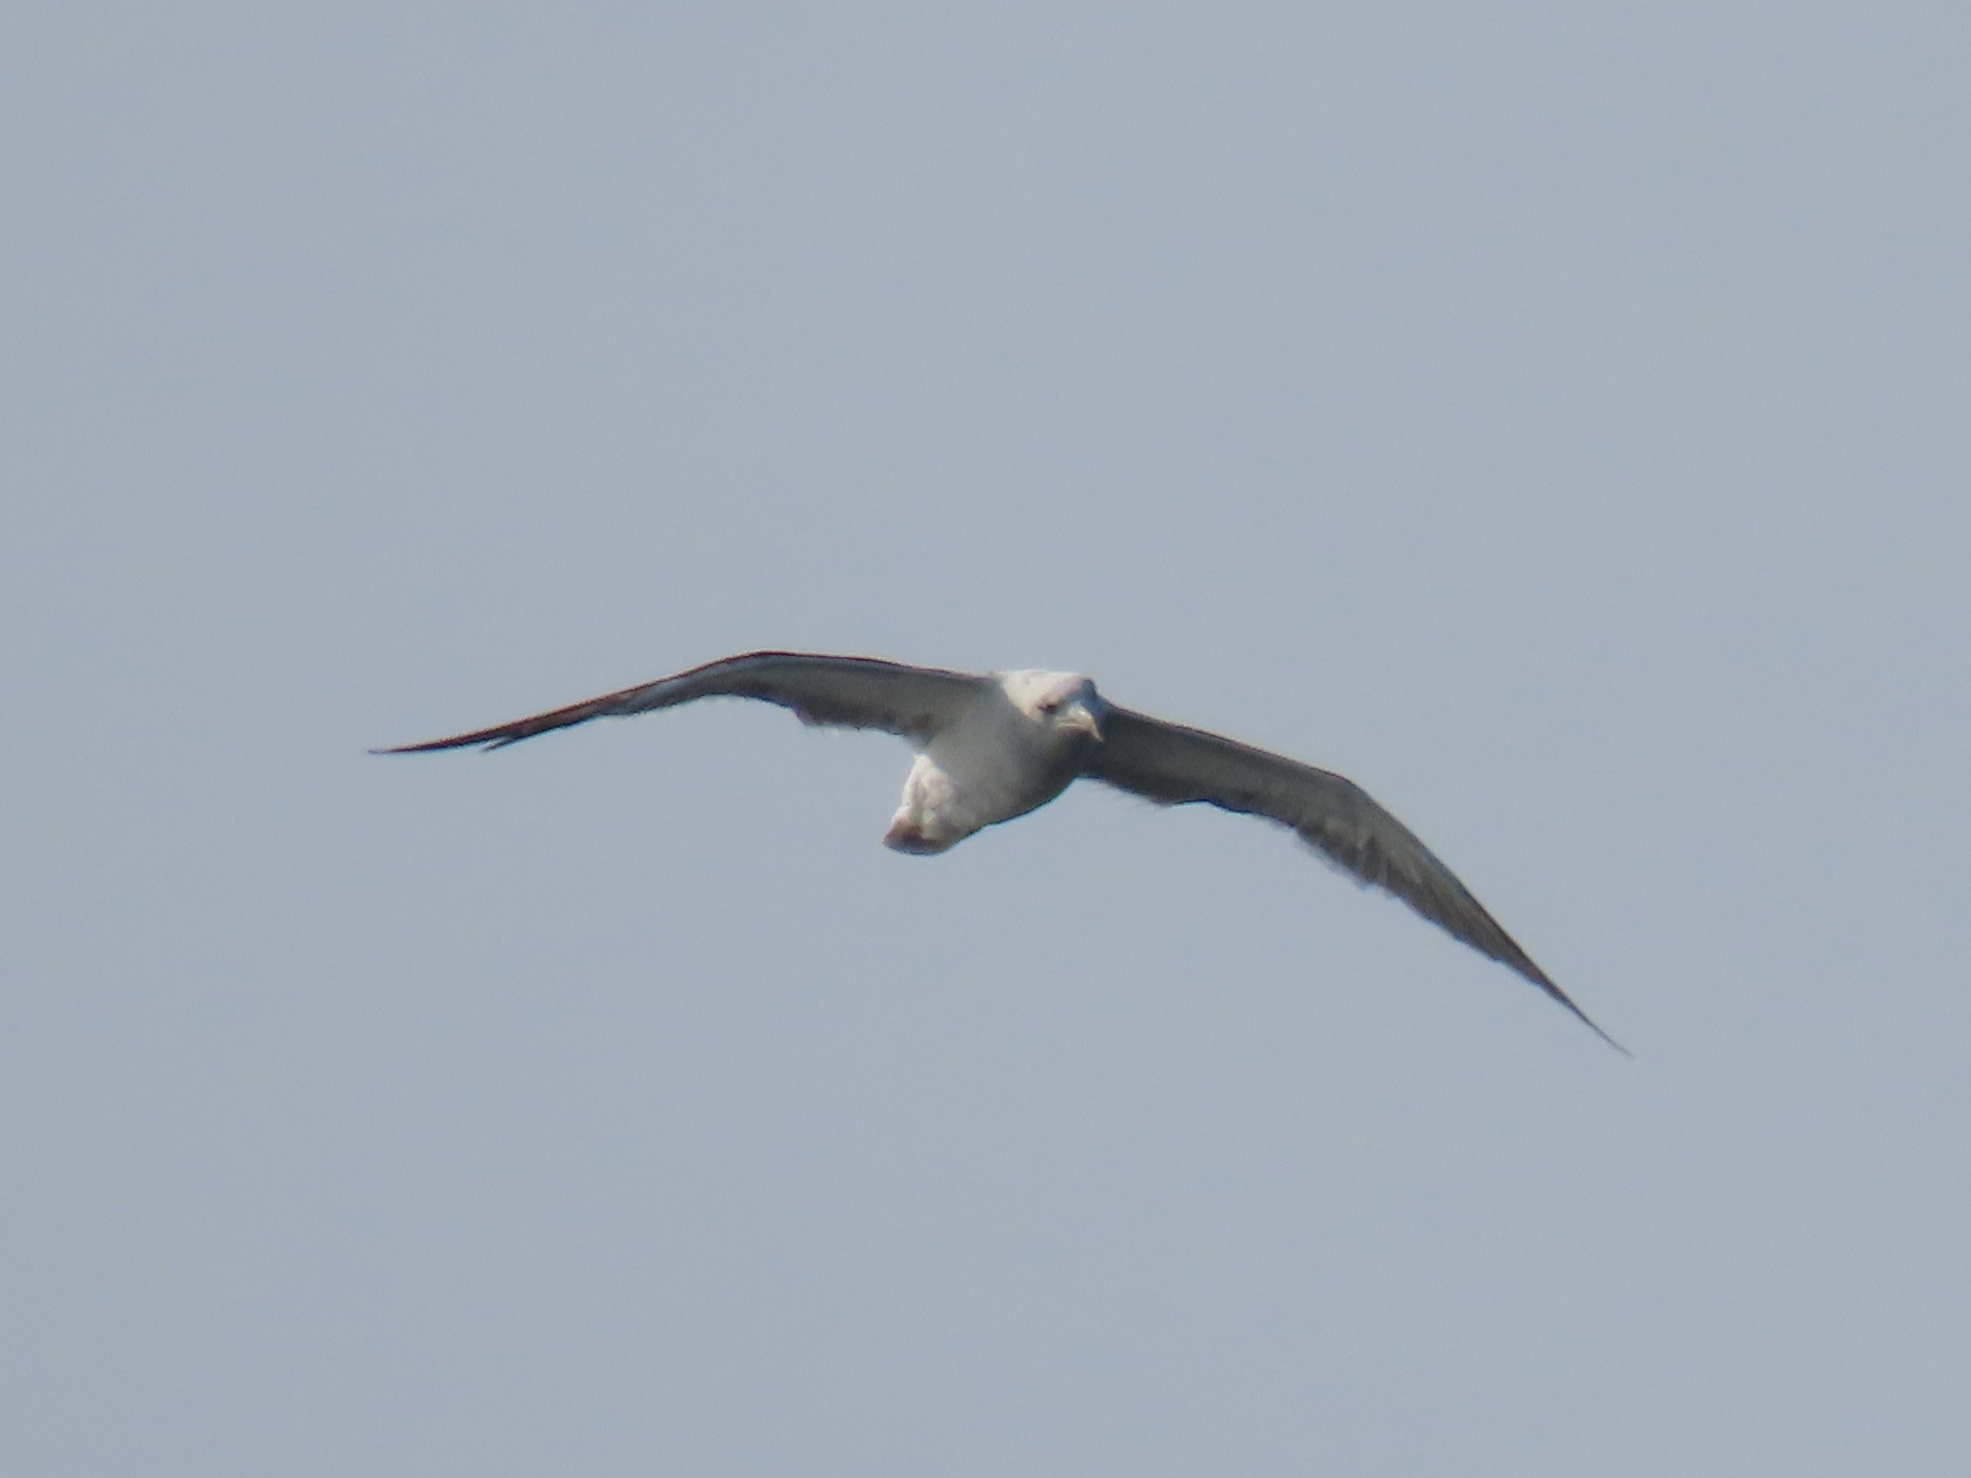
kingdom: Animalia
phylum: Chordata
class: Aves
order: Charadriiformes
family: Laridae
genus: Larus
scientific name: Larus marinus
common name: Great black-backed gull
